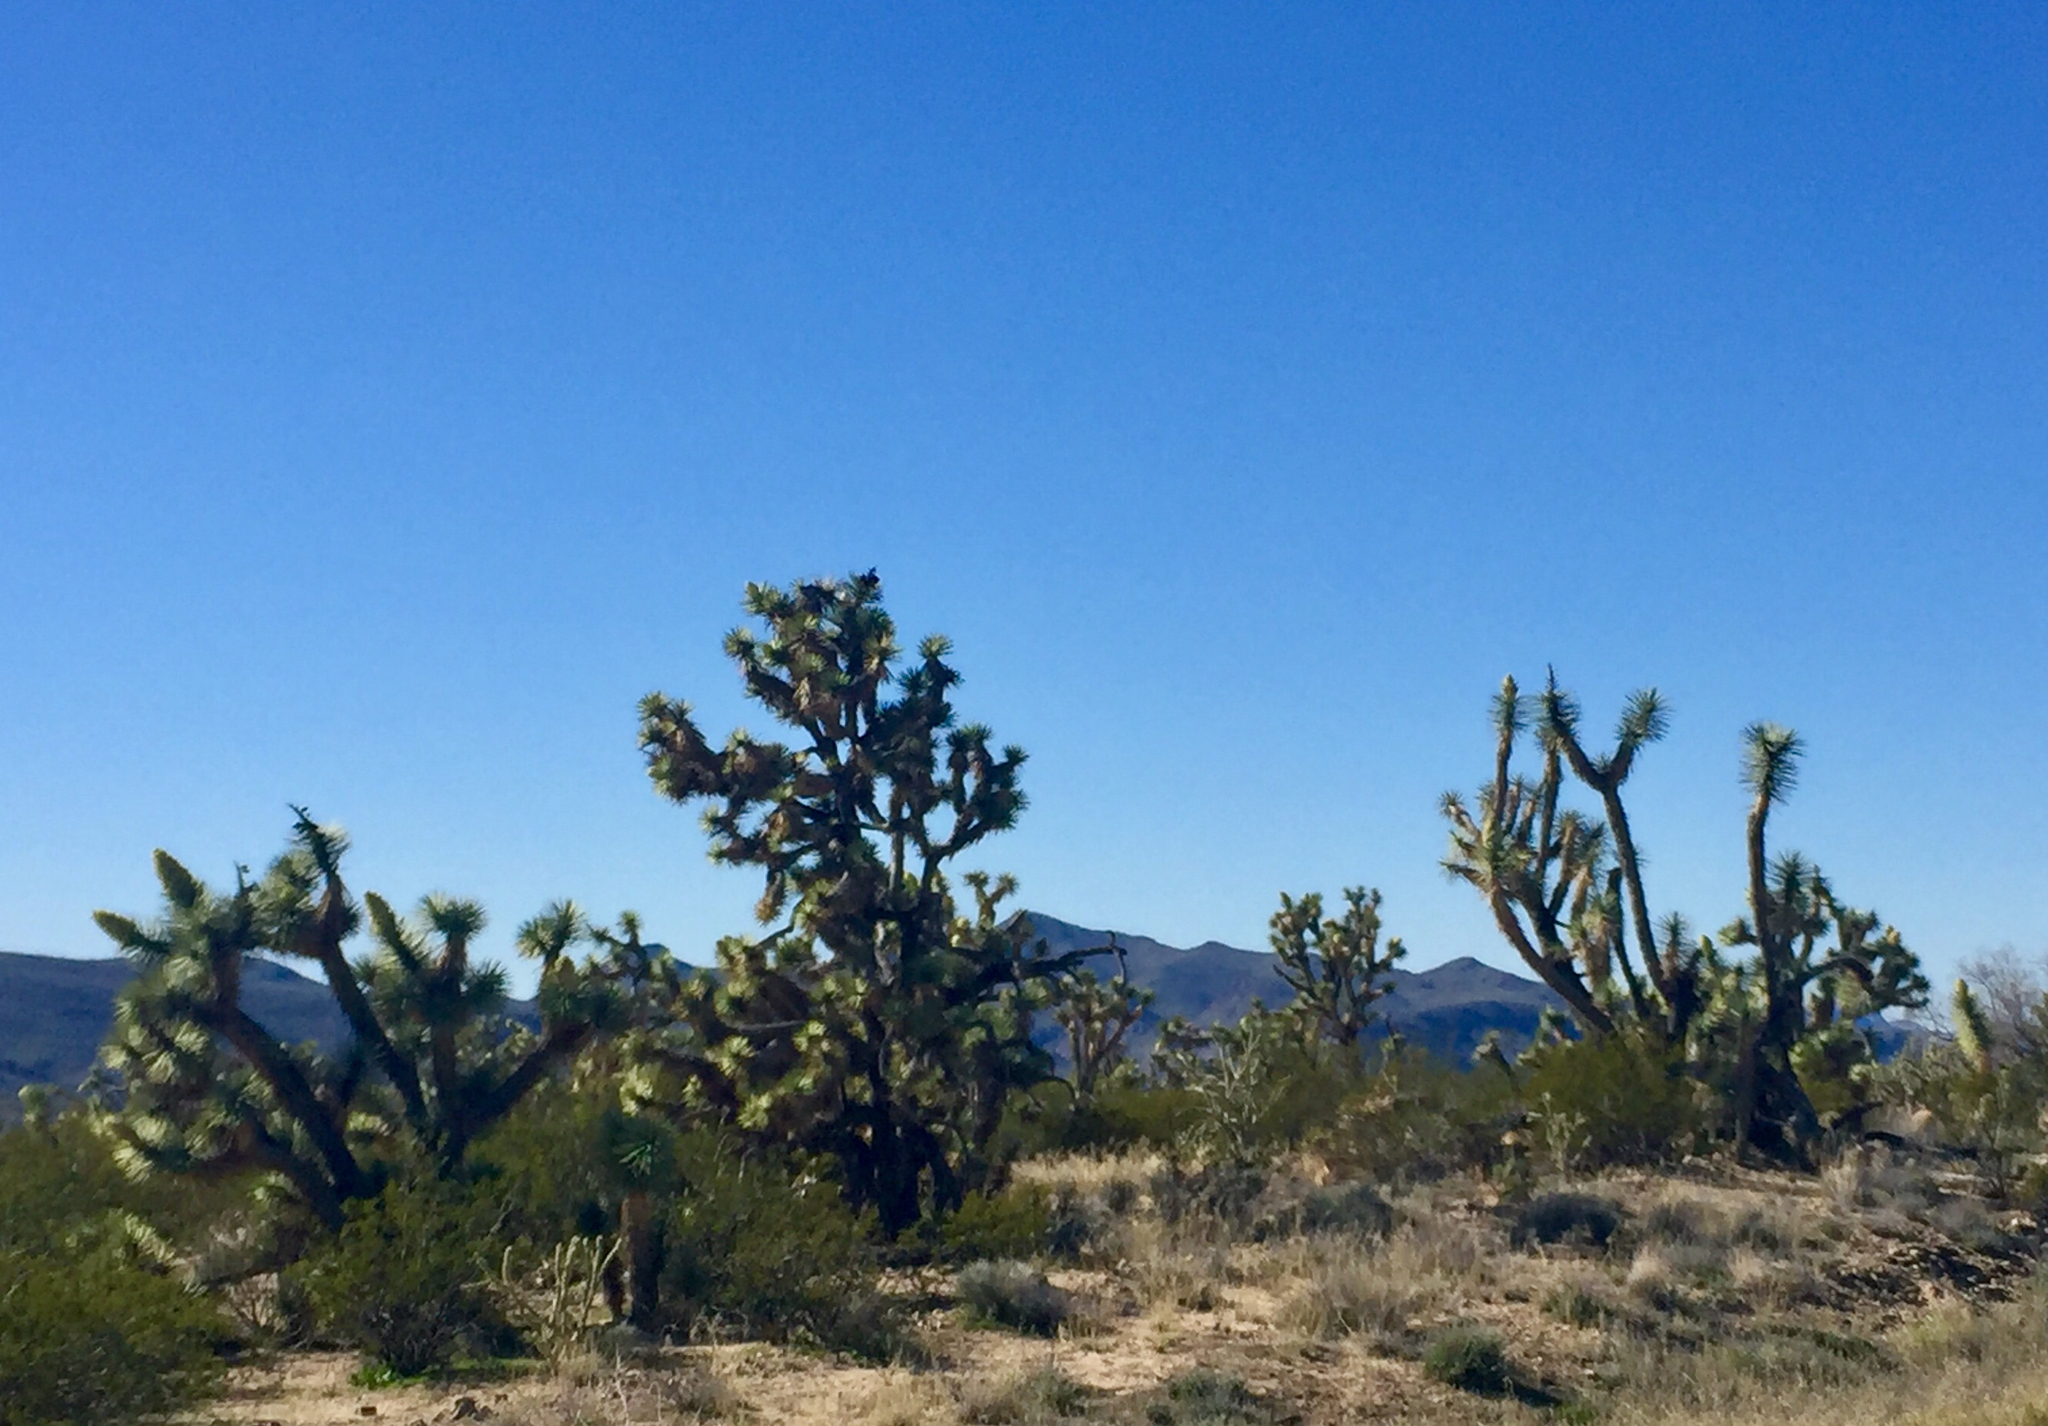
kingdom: Plantae
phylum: Tracheophyta
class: Liliopsida
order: Asparagales
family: Asparagaceae
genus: Yucca
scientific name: Yucca brevifolia
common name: Joshua tree
